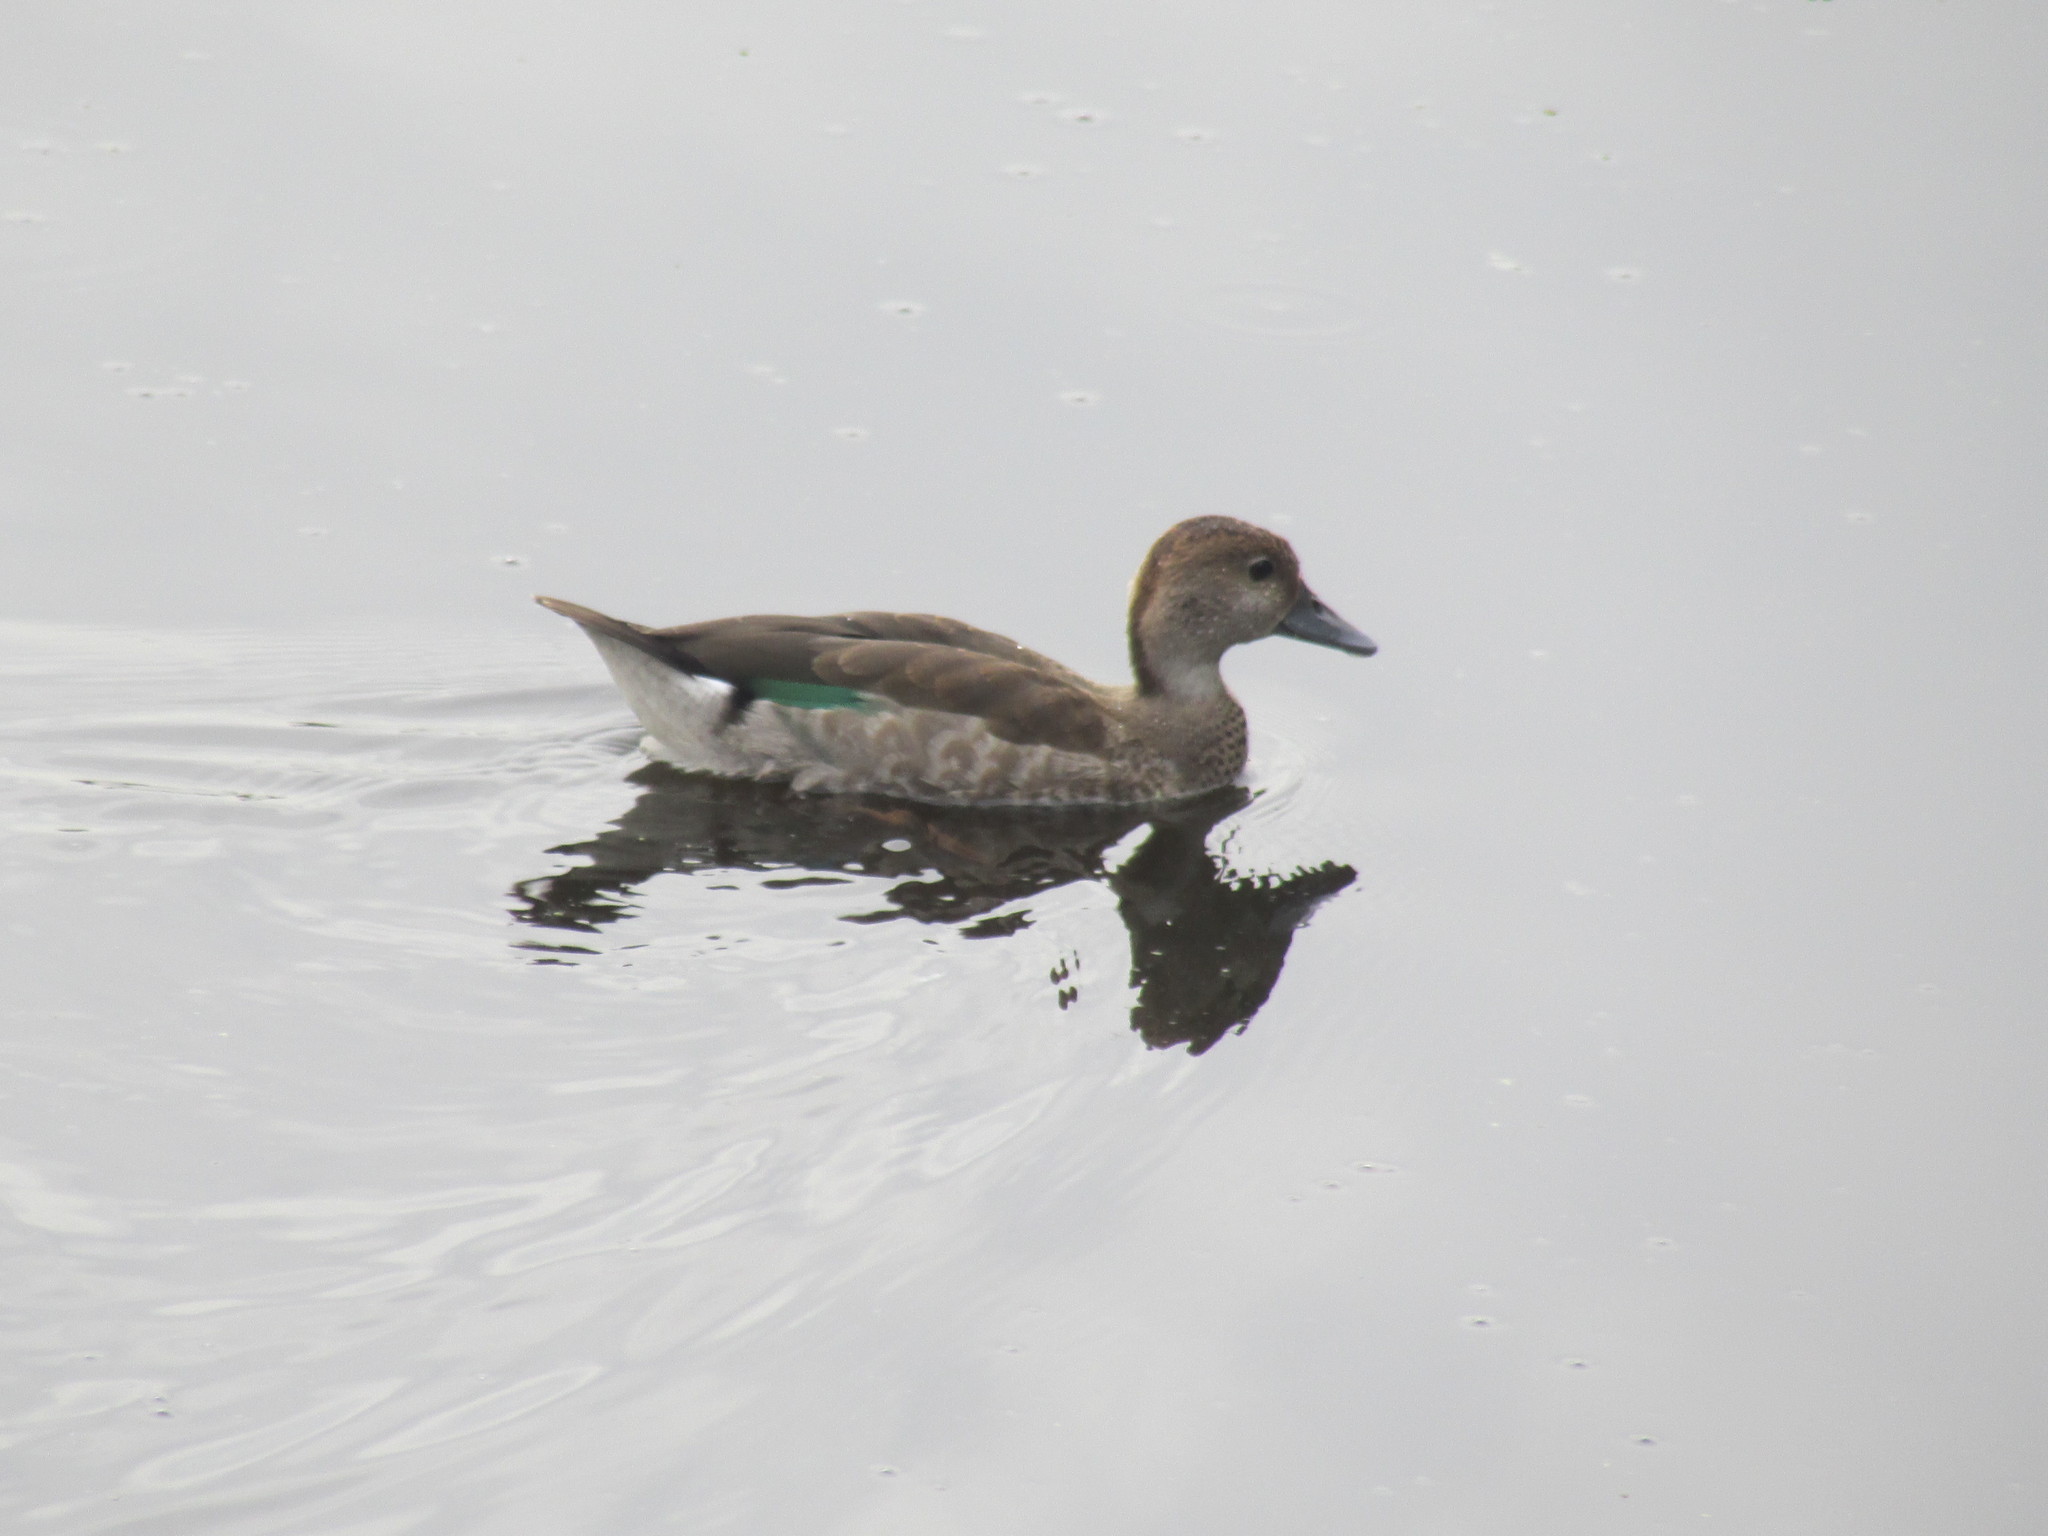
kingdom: Animalia
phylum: Chordata
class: Aves
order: Anseriformes
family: Anatidae
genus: Amazonetta
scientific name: Amazonetta brasiliensis
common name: Brazilian teal
